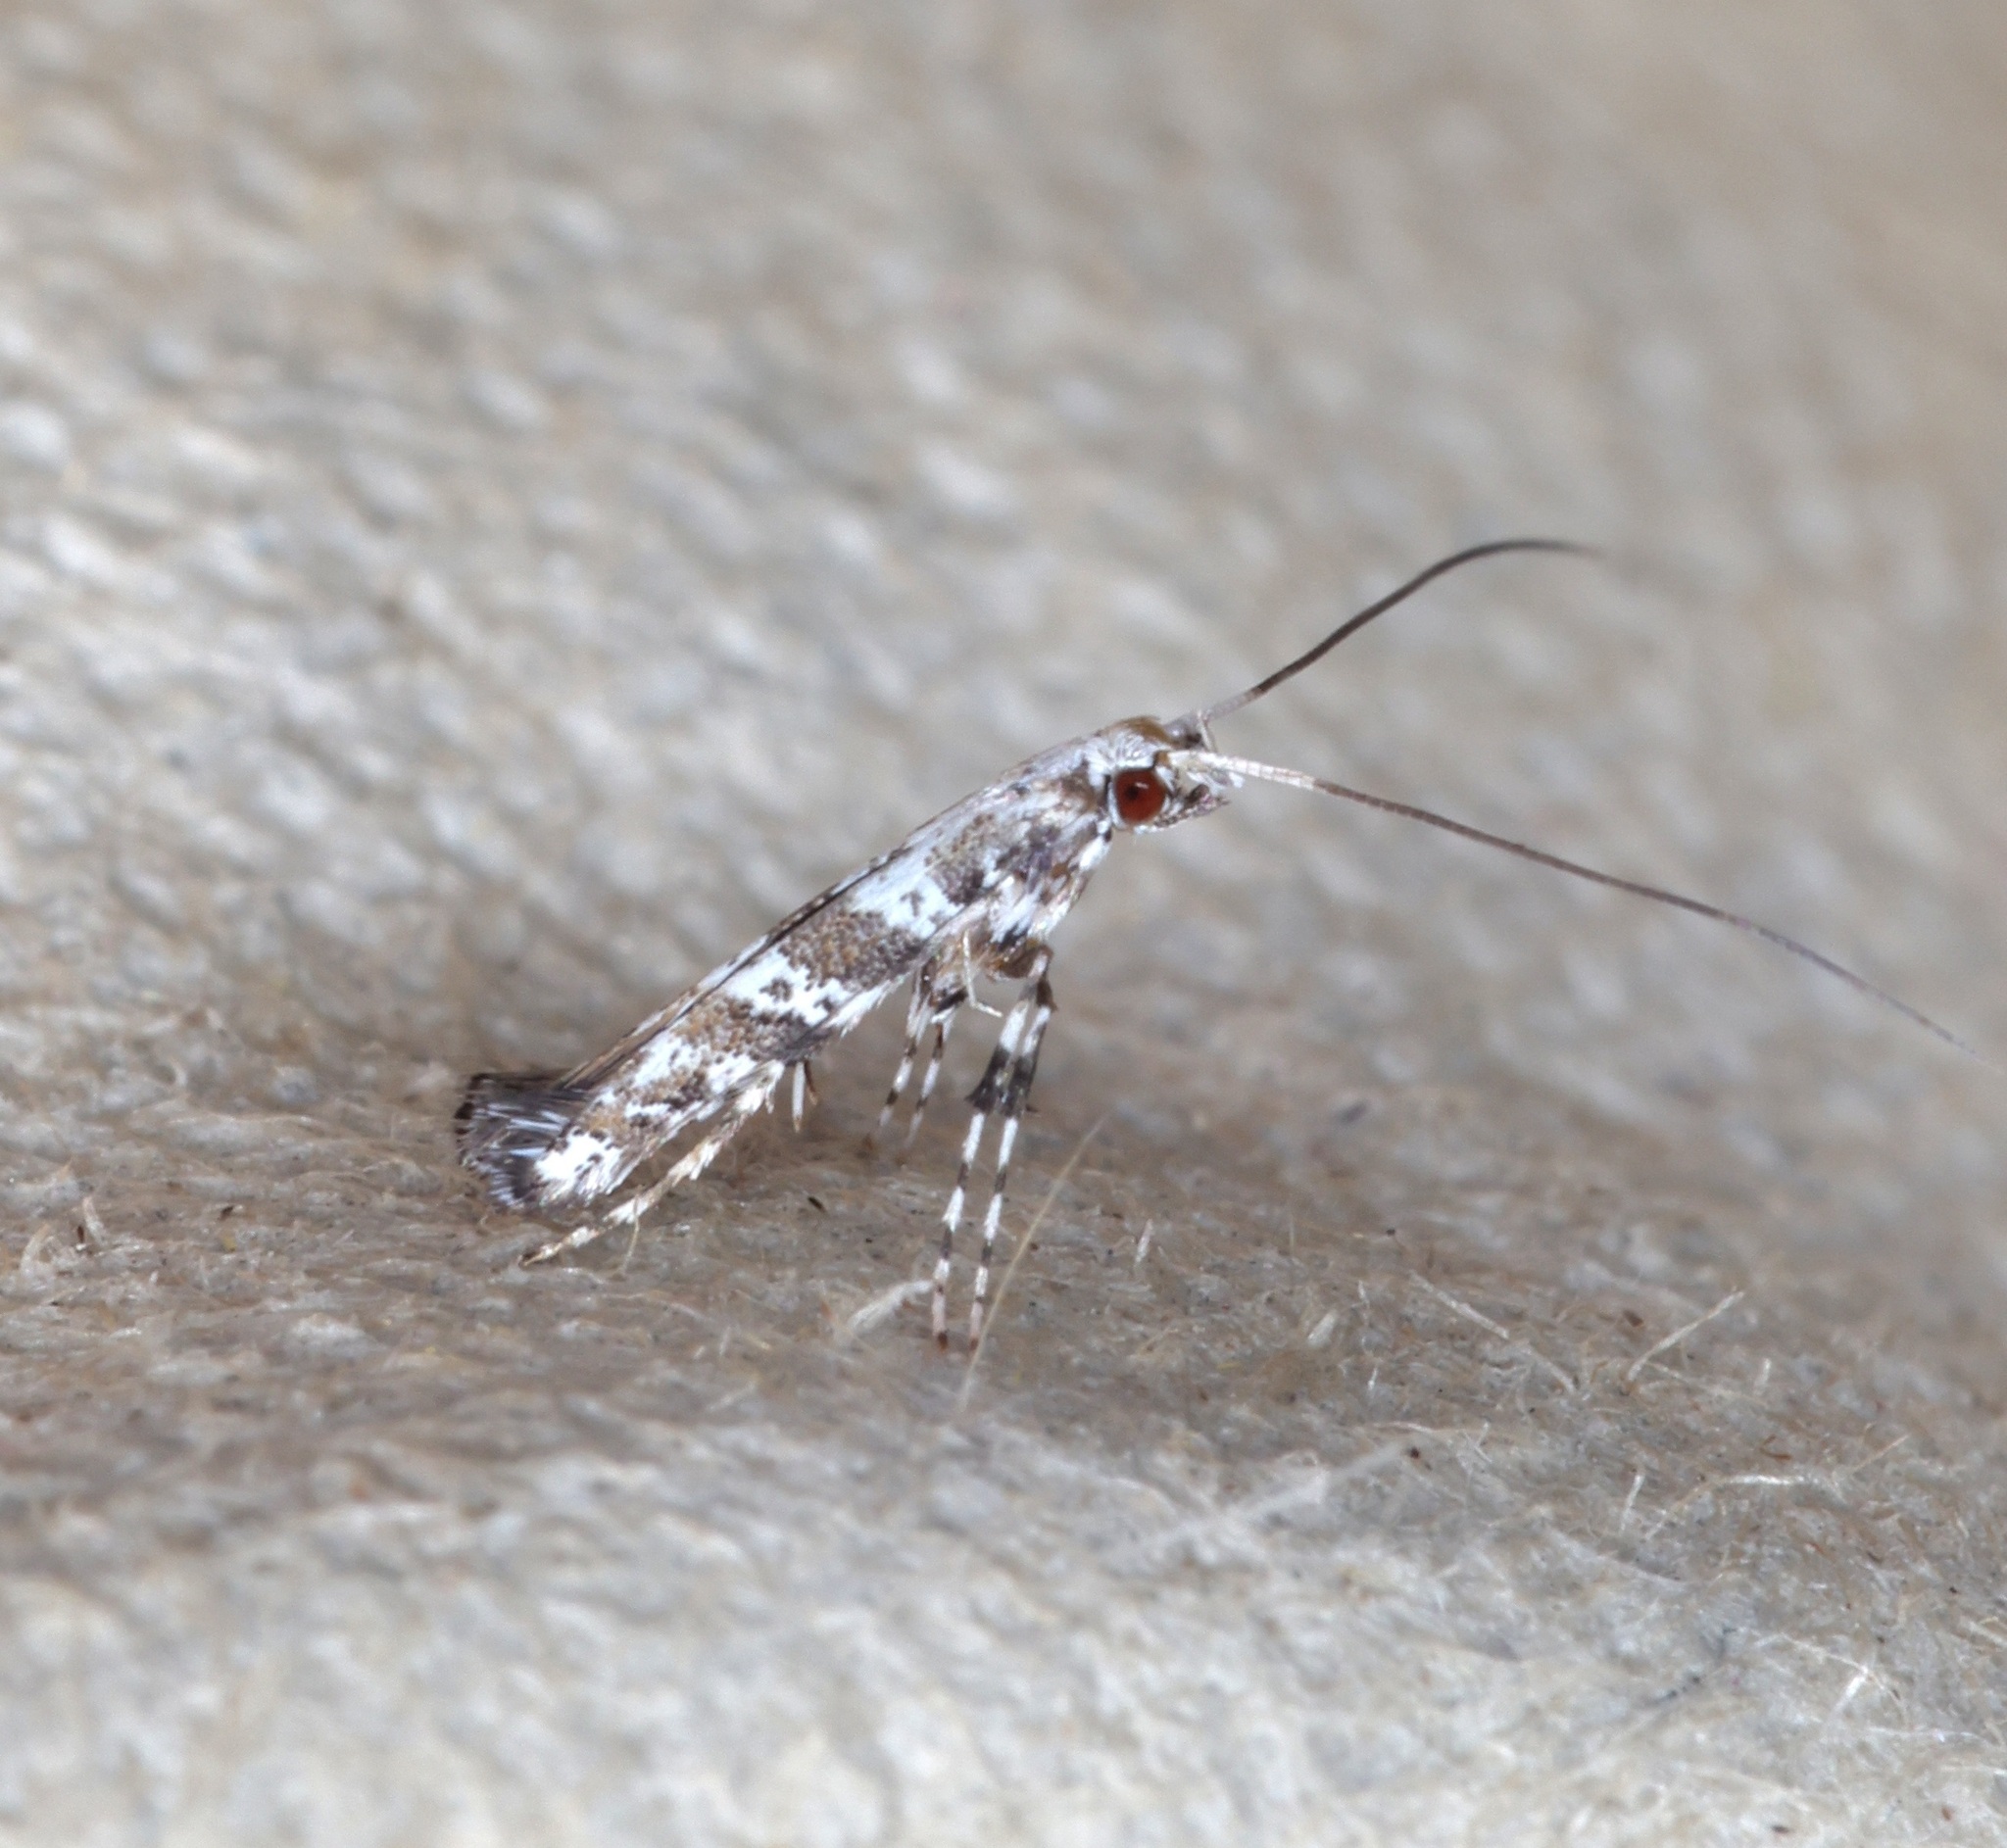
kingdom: Animalia
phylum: Arthropoda
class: Insecta
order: Lepidoptera
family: Gracillariidae
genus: Gibbovalva
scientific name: Gibbovalva quadrifasciata
